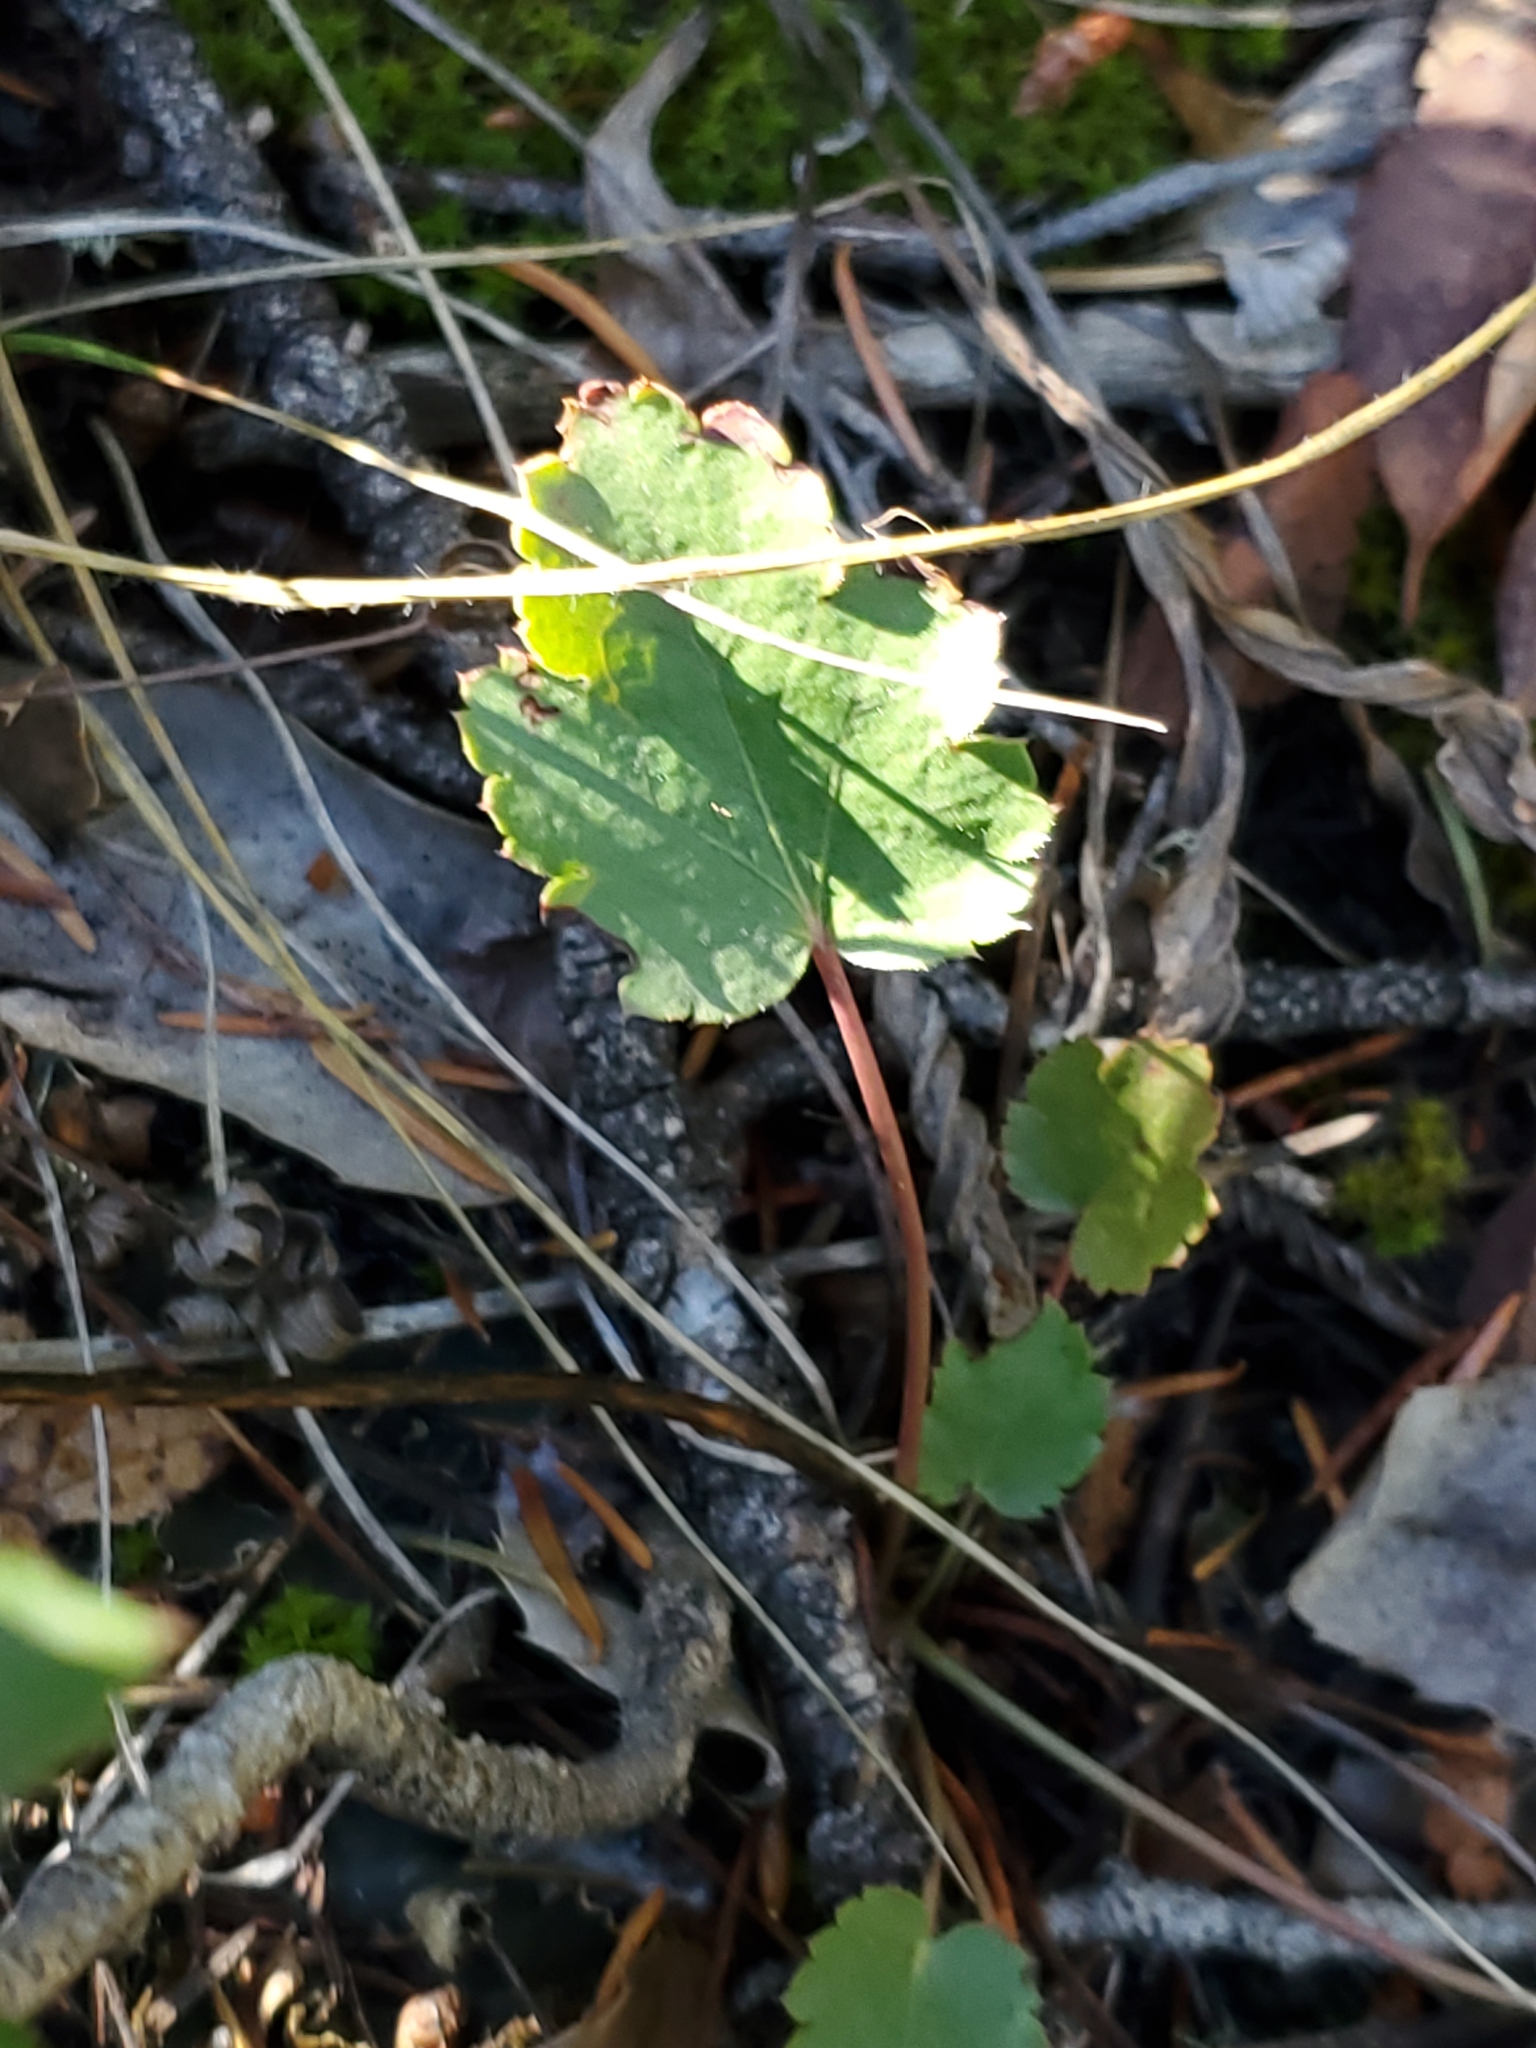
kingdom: Plantae
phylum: Tracheophyta
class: Magnoliopsida
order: Saxifragales
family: Saxifragaceae
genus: Heuchera
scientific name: Heuchera cylindrica
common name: Mat alumroot
